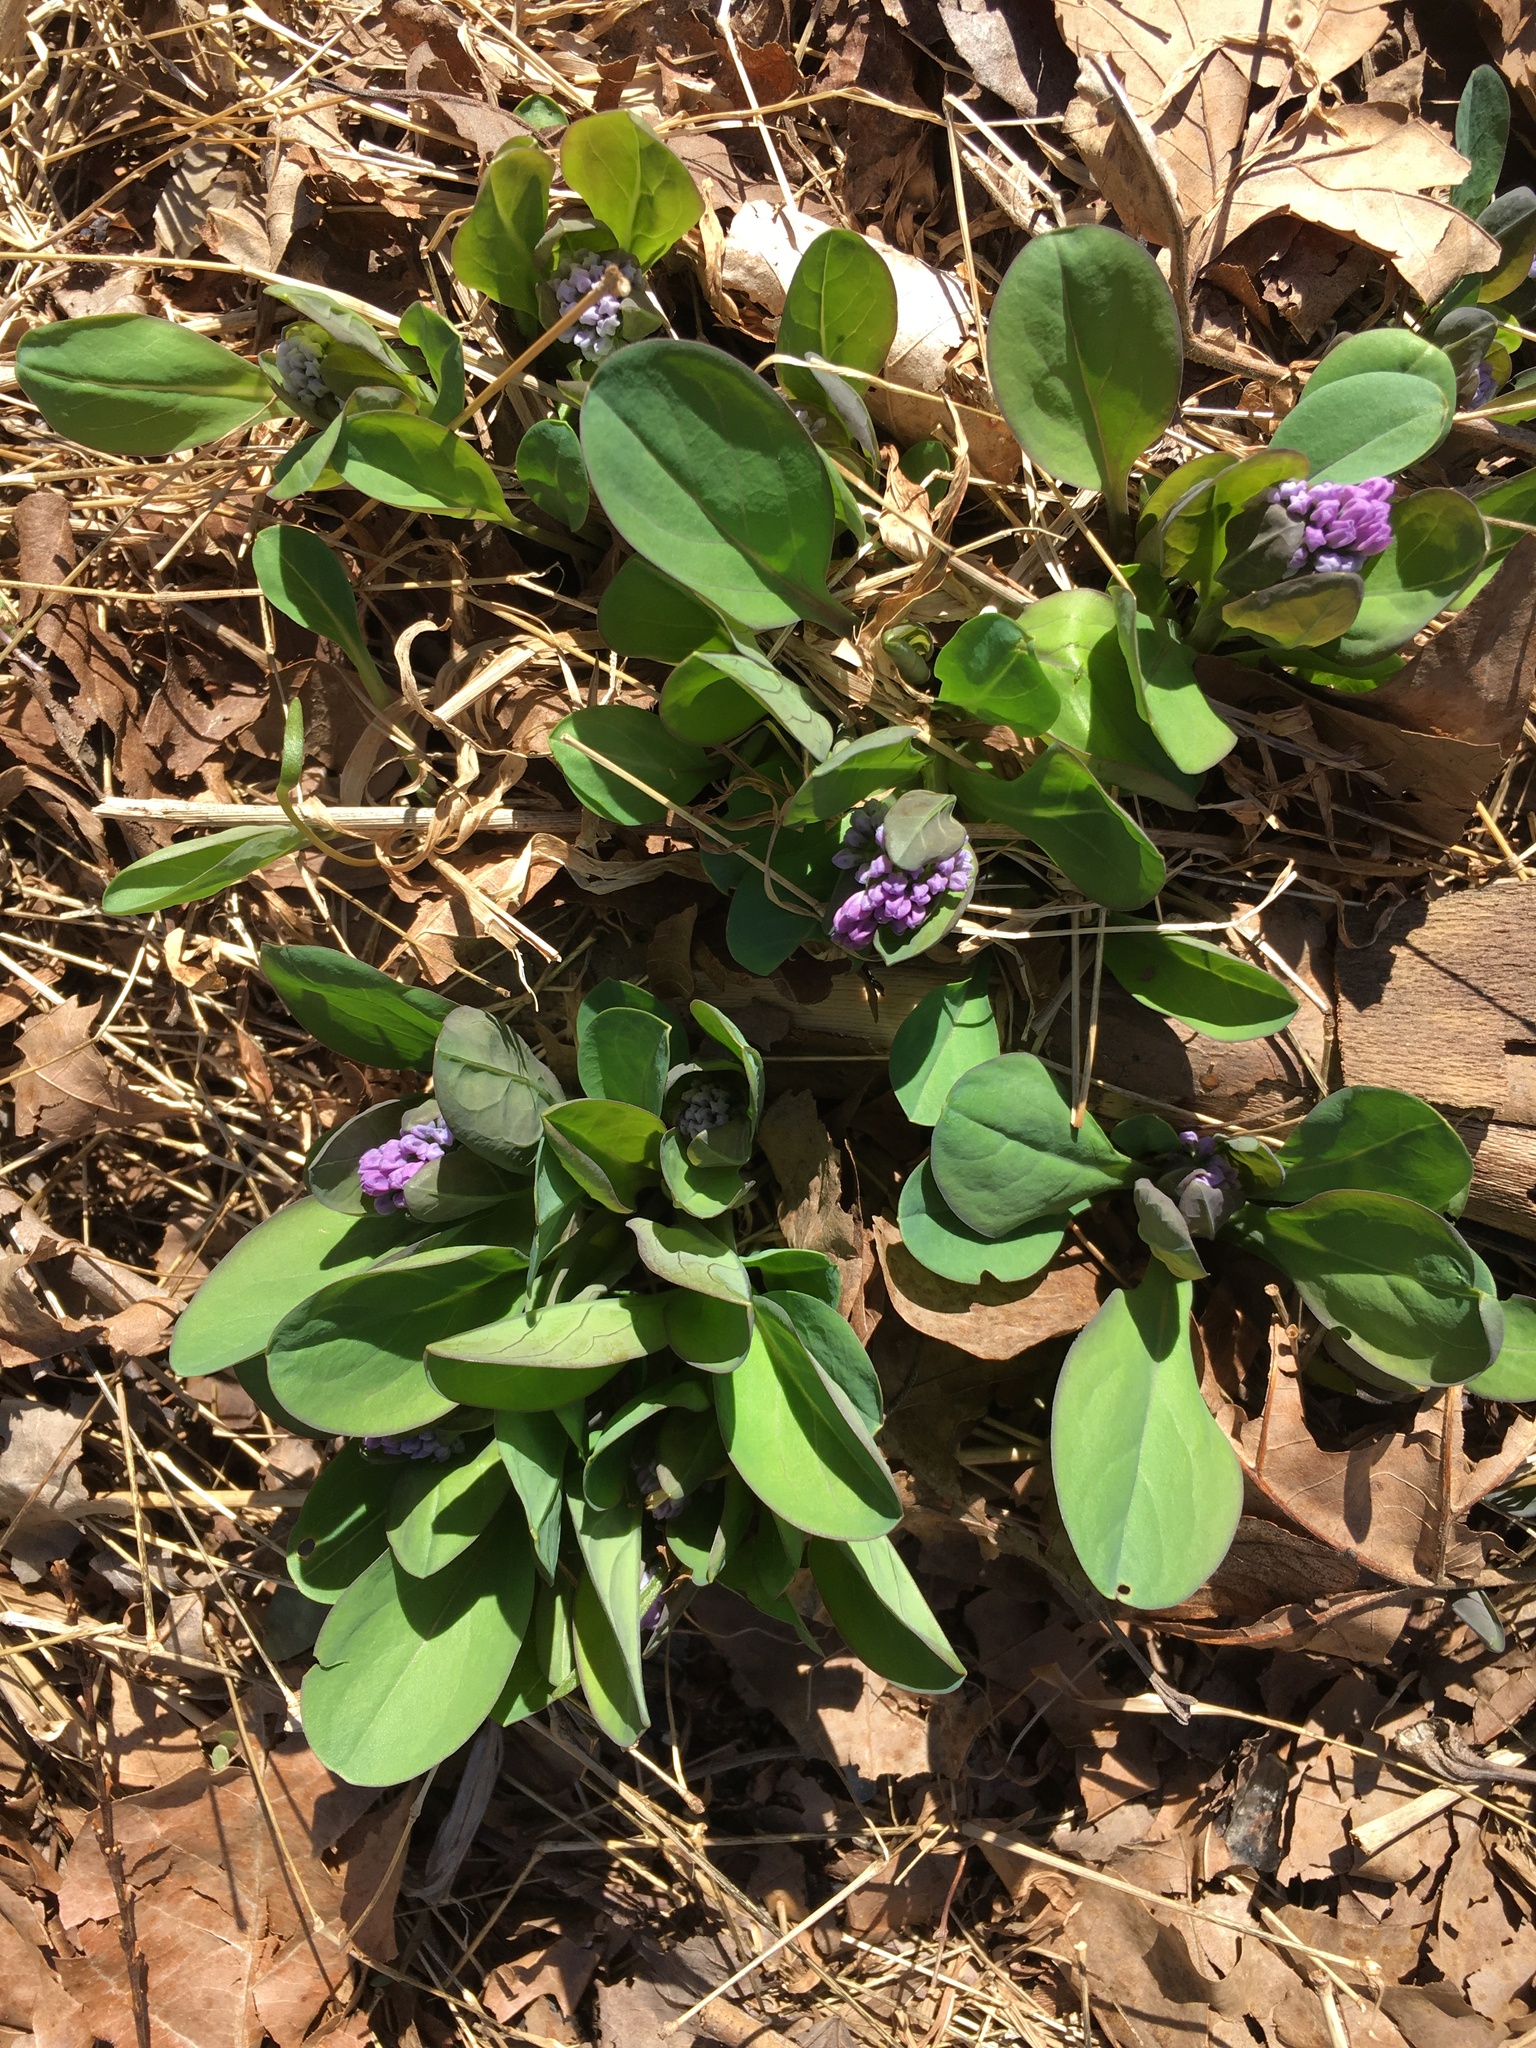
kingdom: Plantae
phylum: Tracheophyta
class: Magnoliopsida
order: Boraginales
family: Boraginaceae
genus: Mertensia
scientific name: Mertensia virginica
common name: Virginia bluebells
